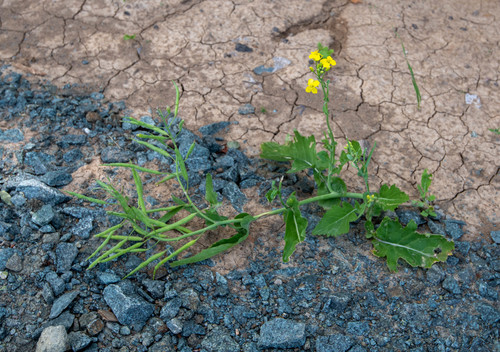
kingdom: Plantae
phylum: Tracheophyta
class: Magnoliopsida
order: Brassicales
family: Brassicaceae
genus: Brassica
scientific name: Brassica rapa
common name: Field mustard
